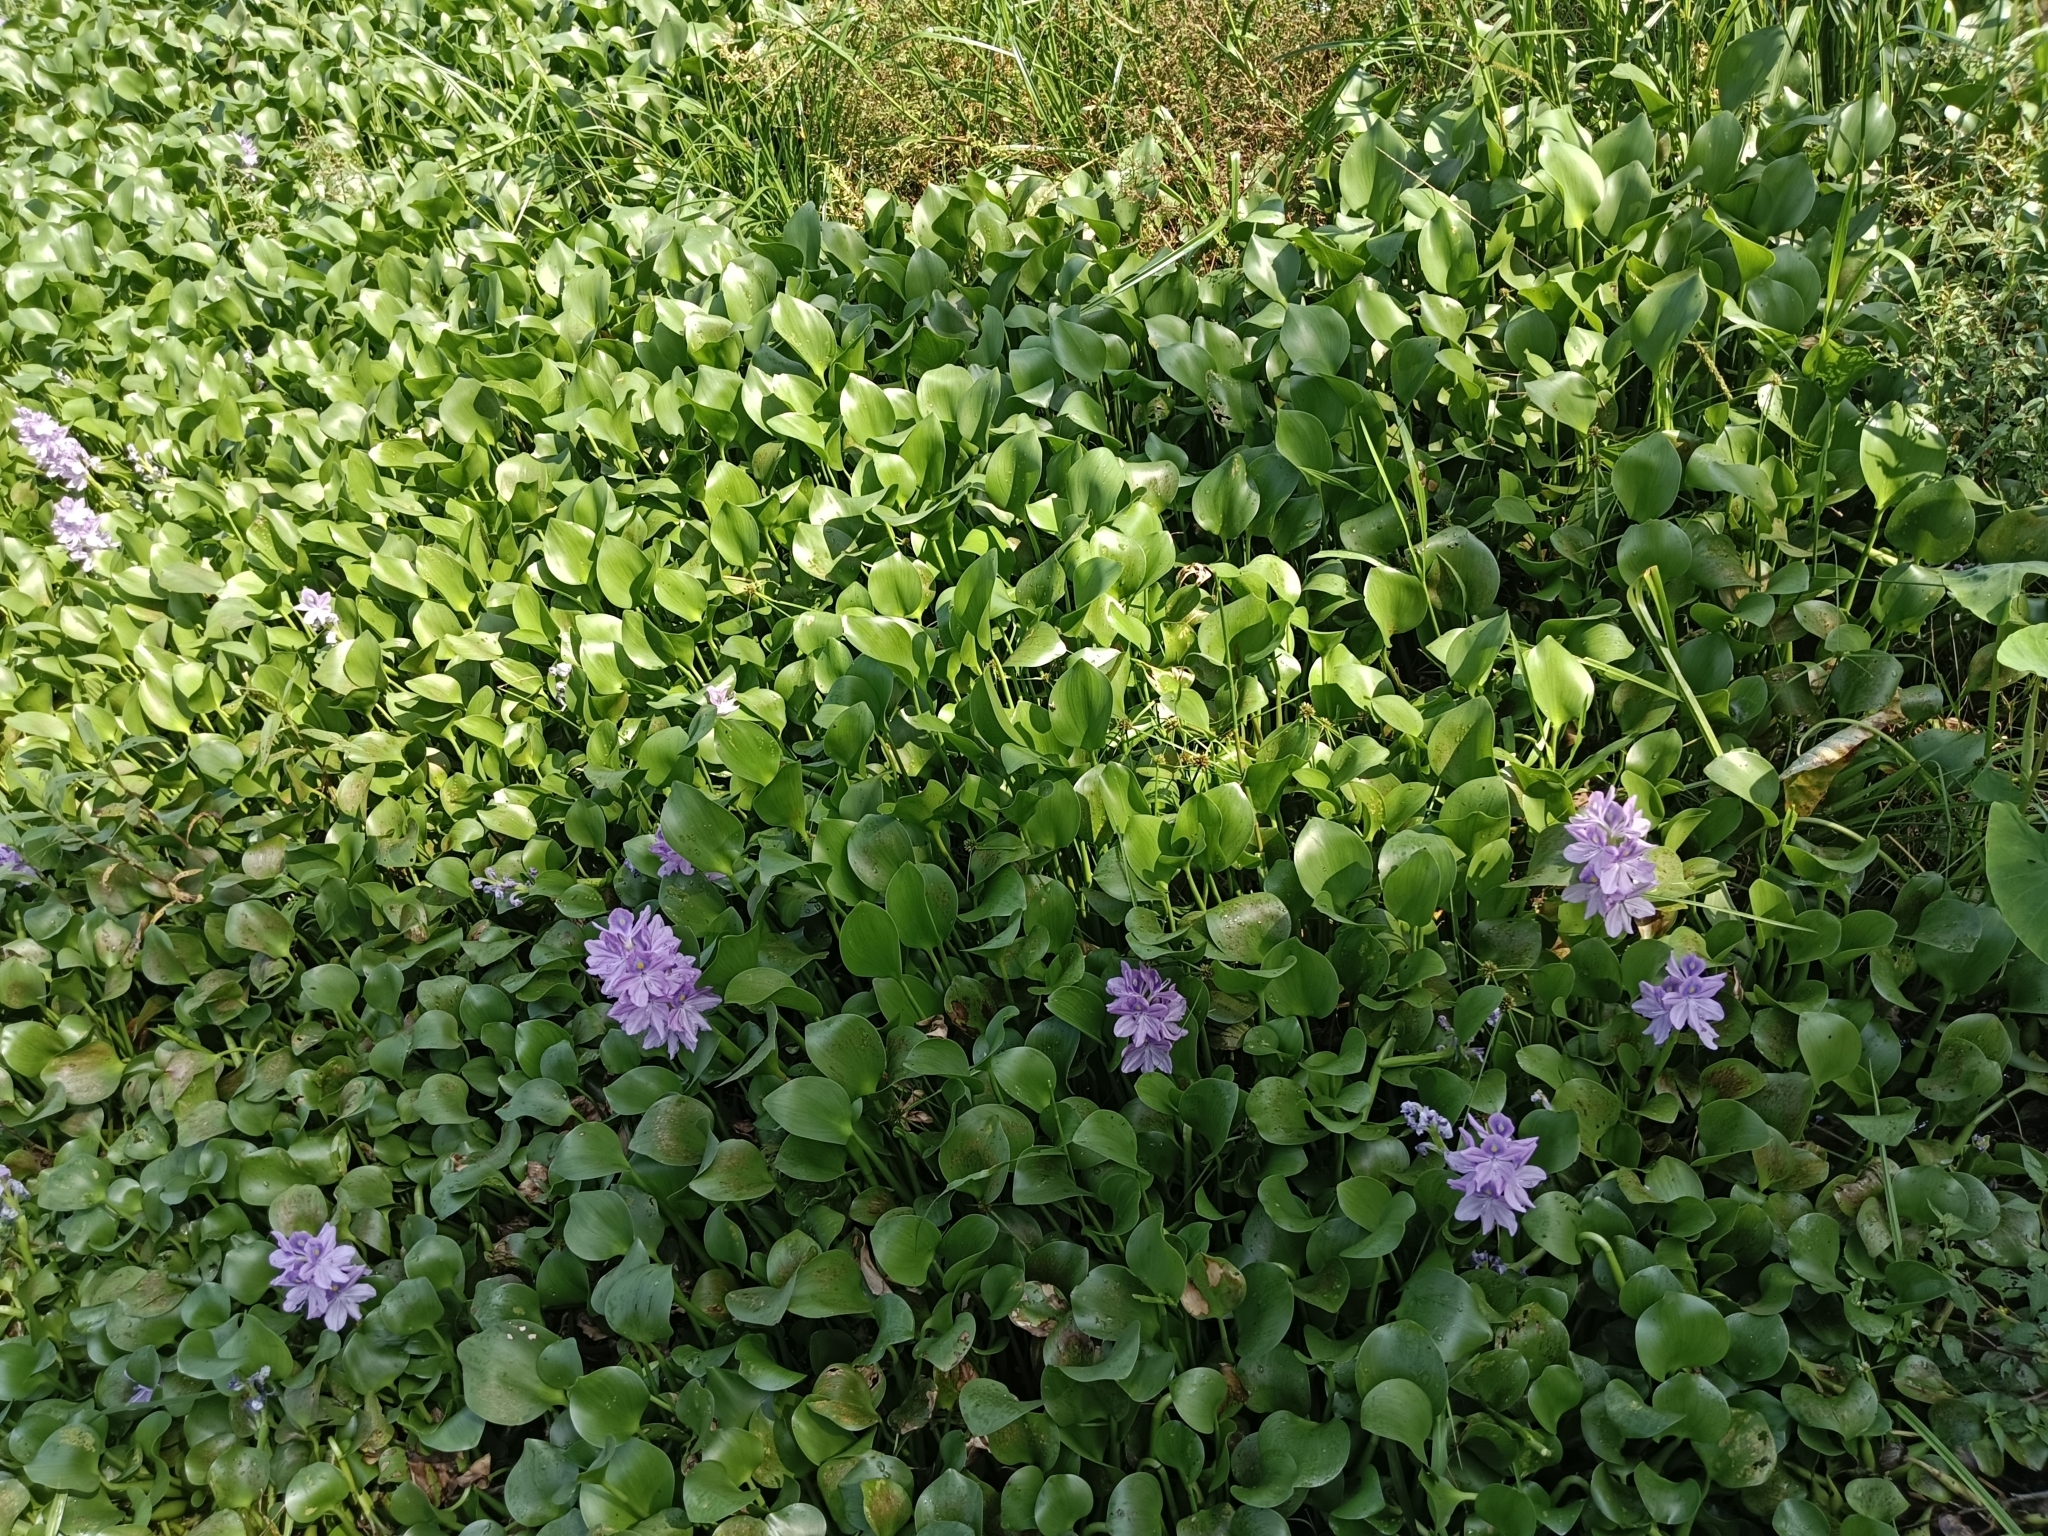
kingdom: Plantae
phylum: Tracheophyta
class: Liliopsida
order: Commelinales
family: Pontederiaceae
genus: Pontederia
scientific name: Pontederia crassipes
